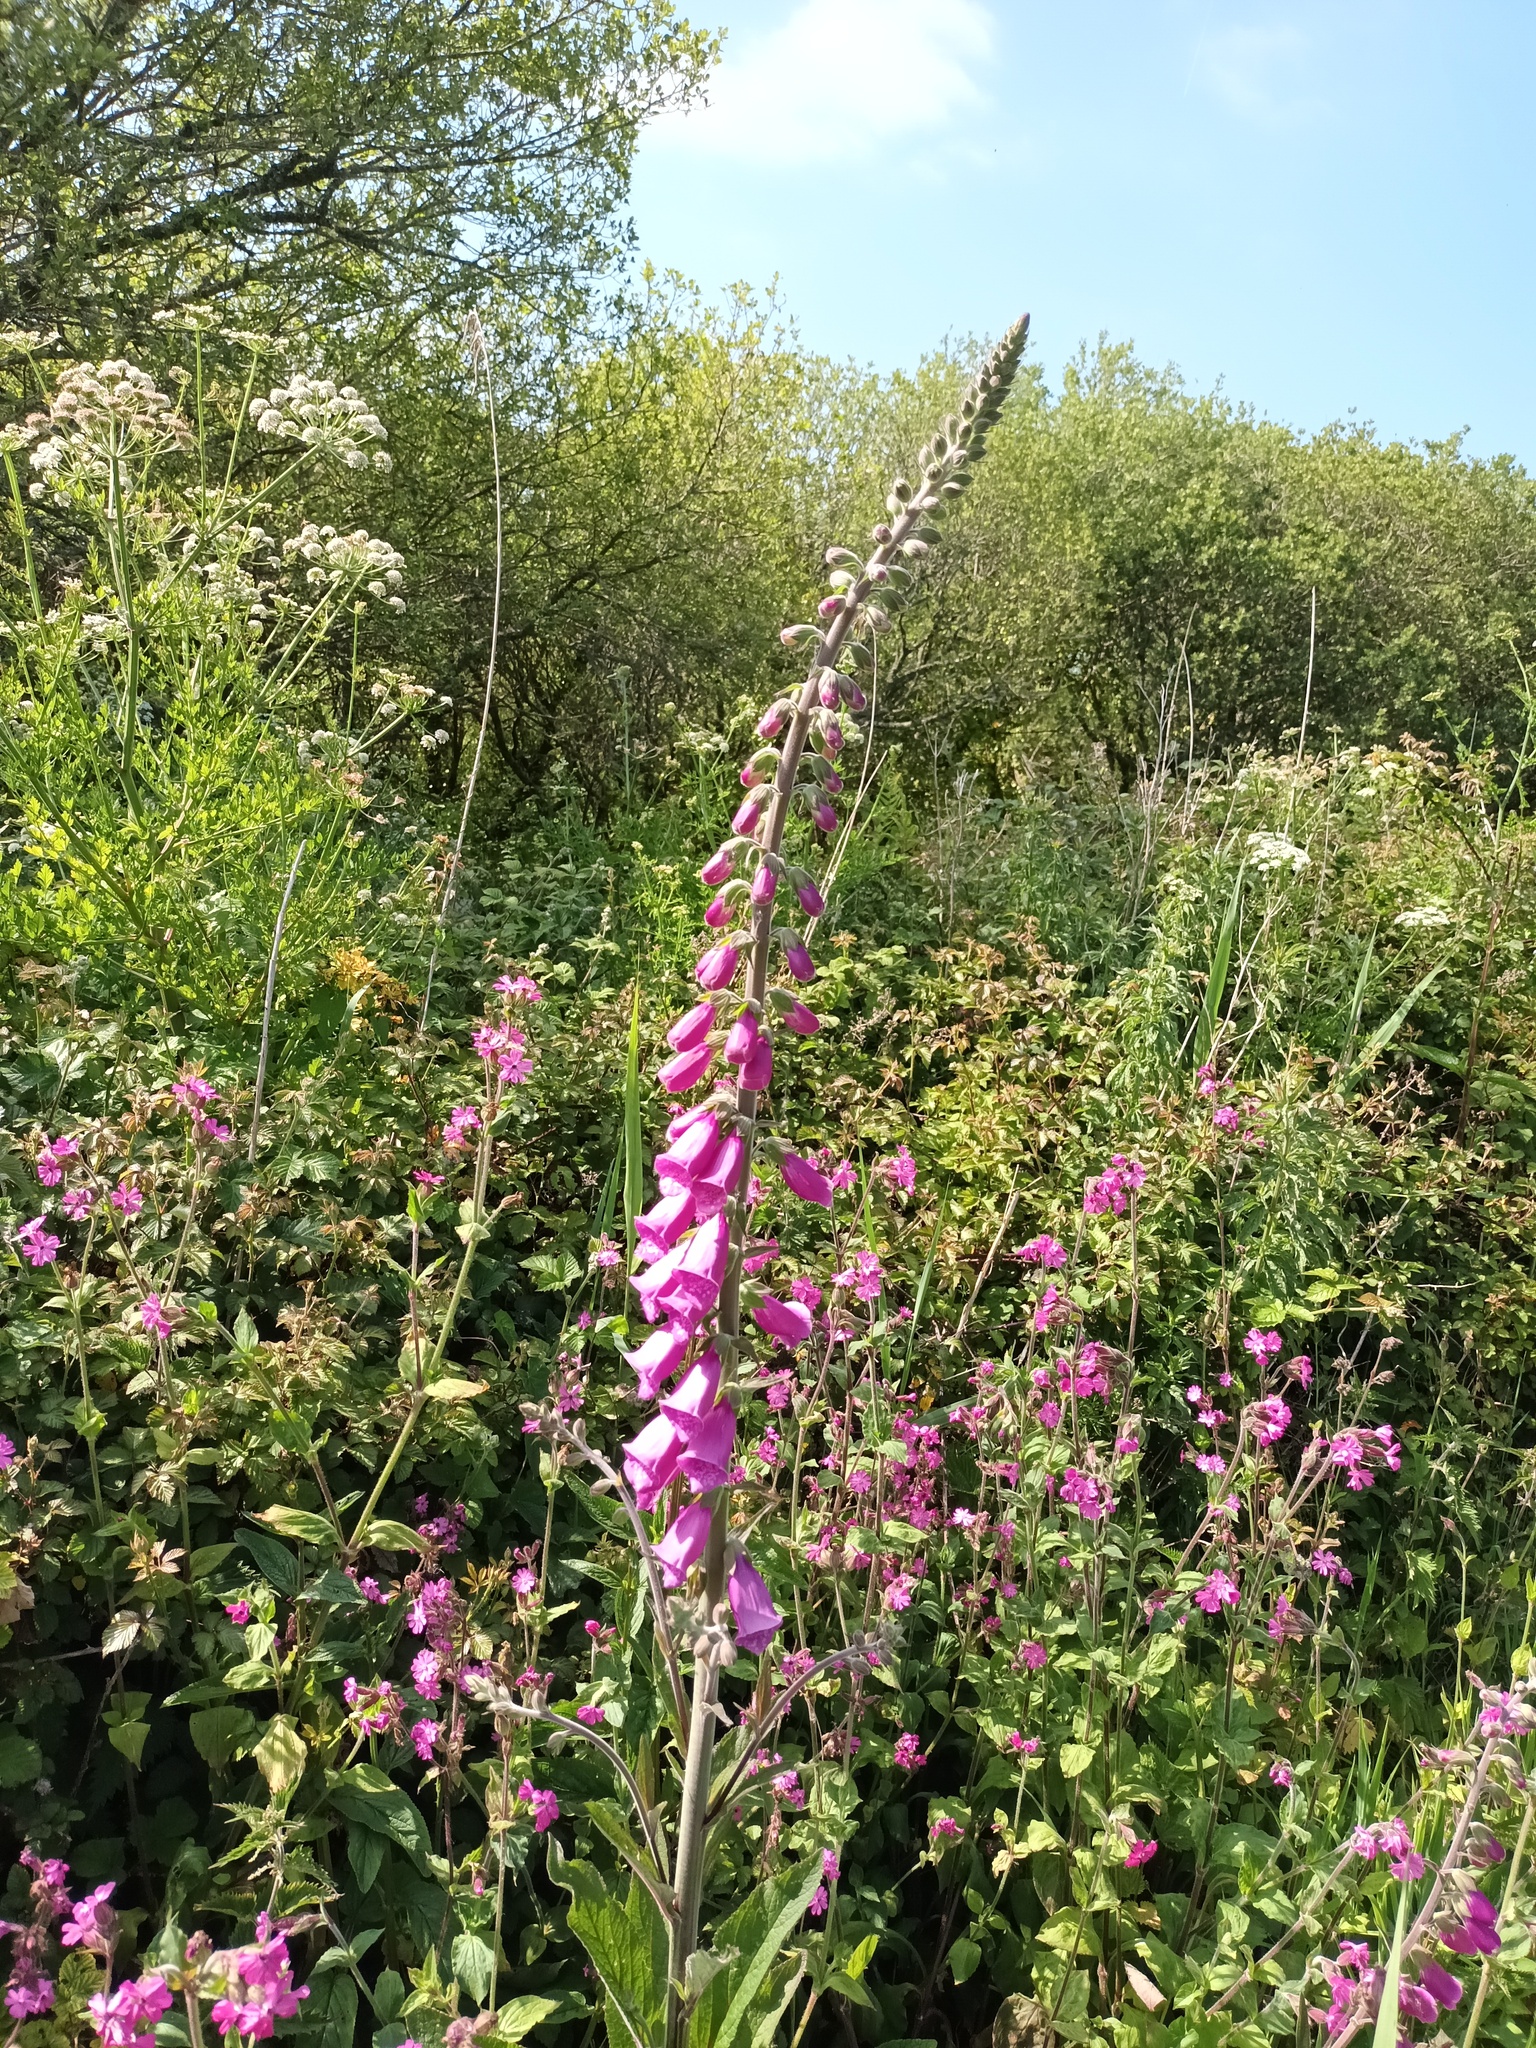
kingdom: Plantae
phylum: Tracheophyta
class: Magnoliopsida
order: Lamiales
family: Plantaginaceae
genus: Digitalis
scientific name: Digitalis purpurea
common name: Foxglove
